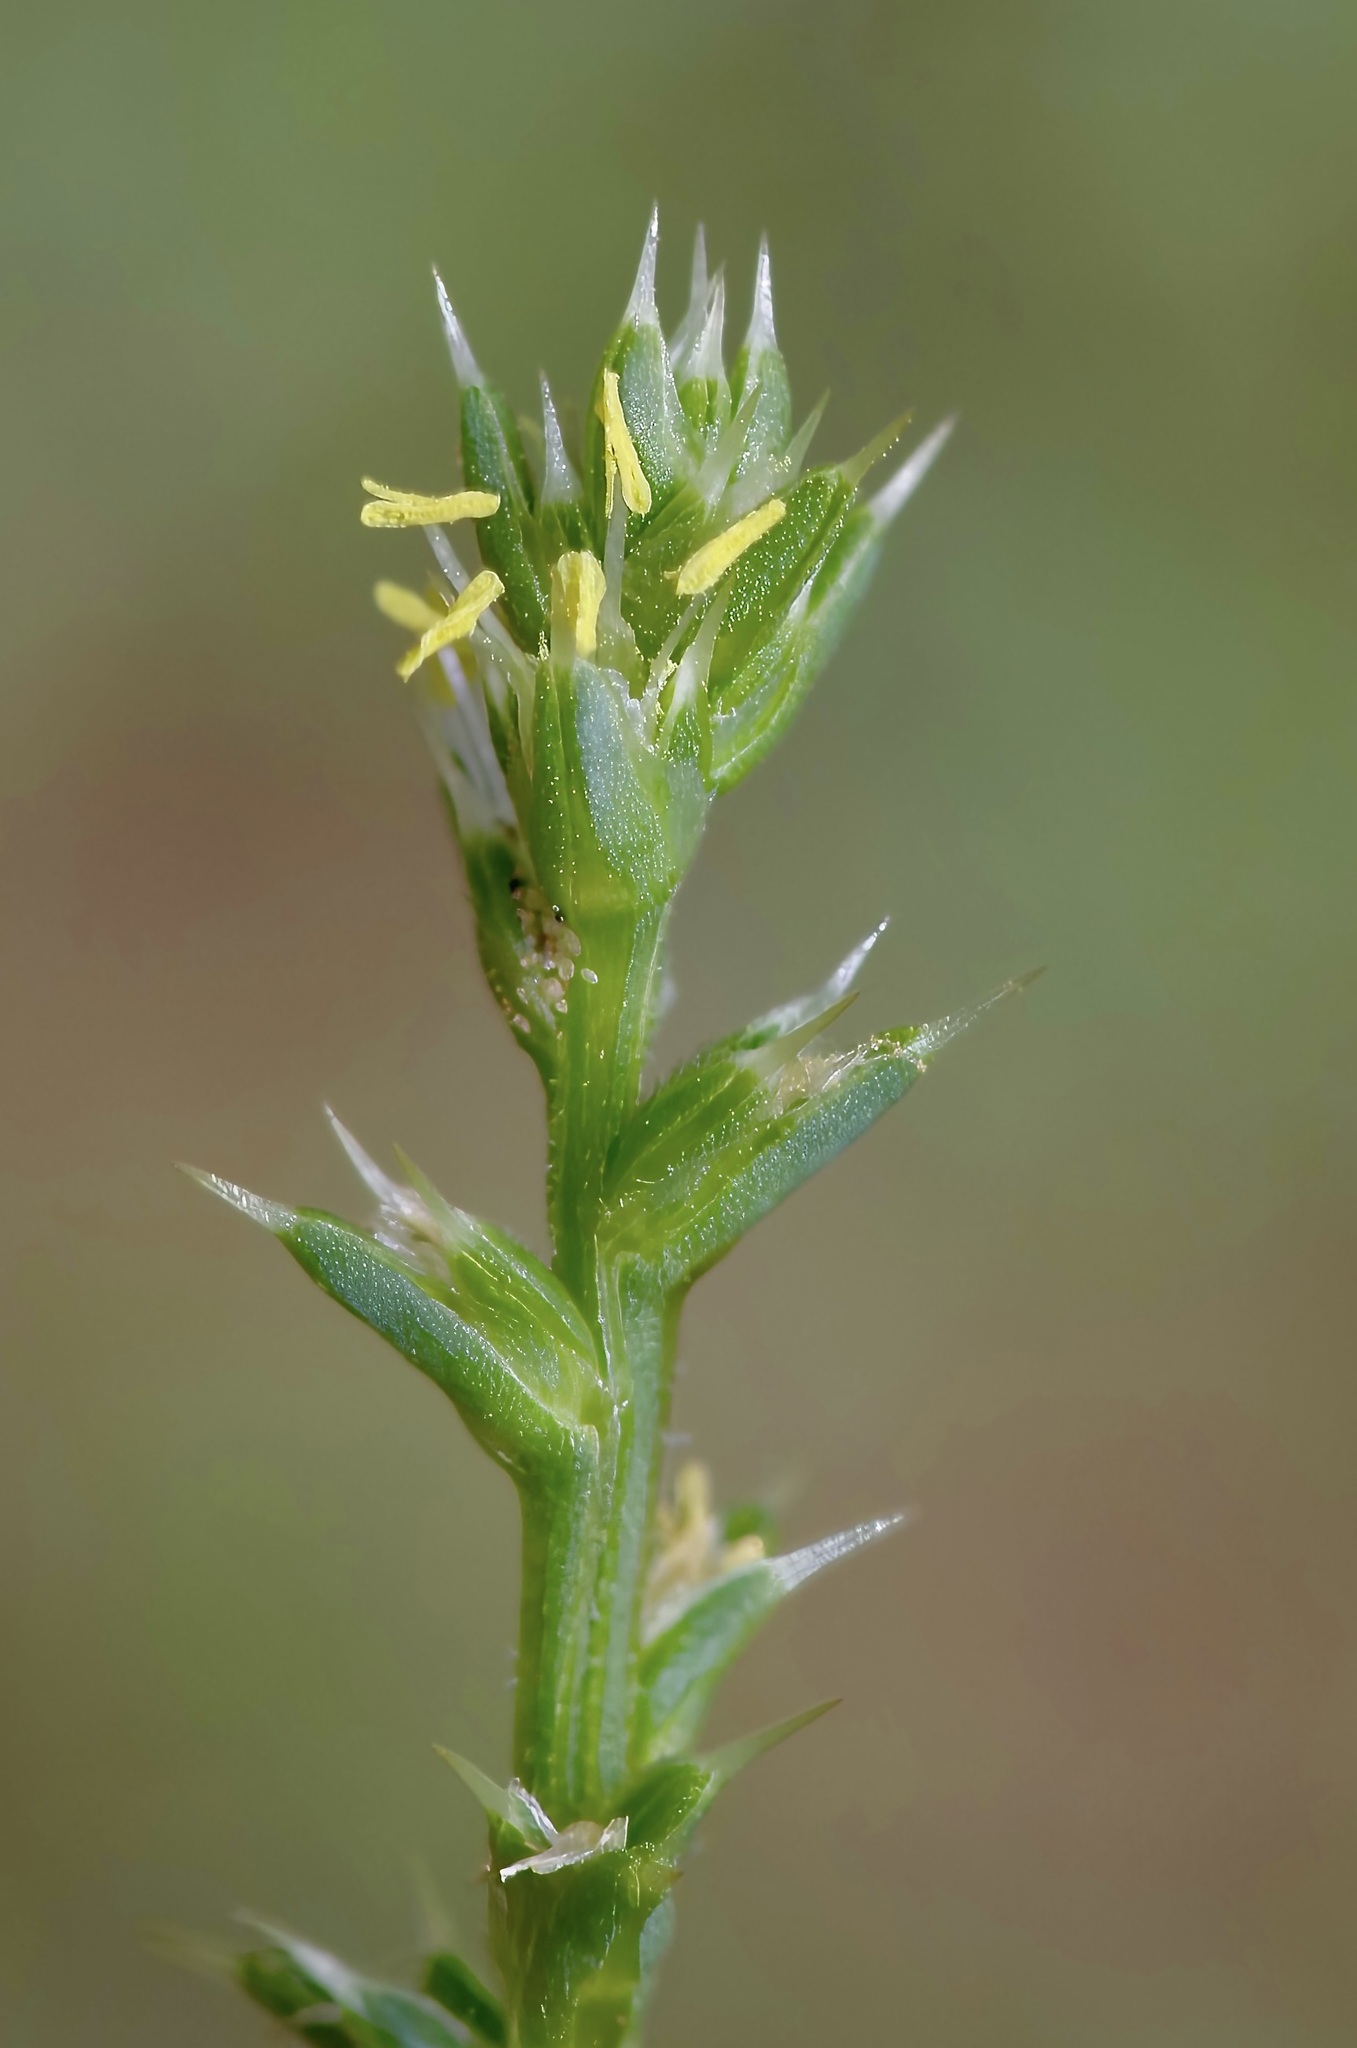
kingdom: Plantae
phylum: Tracheophyta
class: Magnoliopsida
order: Caryophyllales
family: Amaranthaceae
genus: Salsola
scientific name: Salsola tragus
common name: Prickly russian thistle
